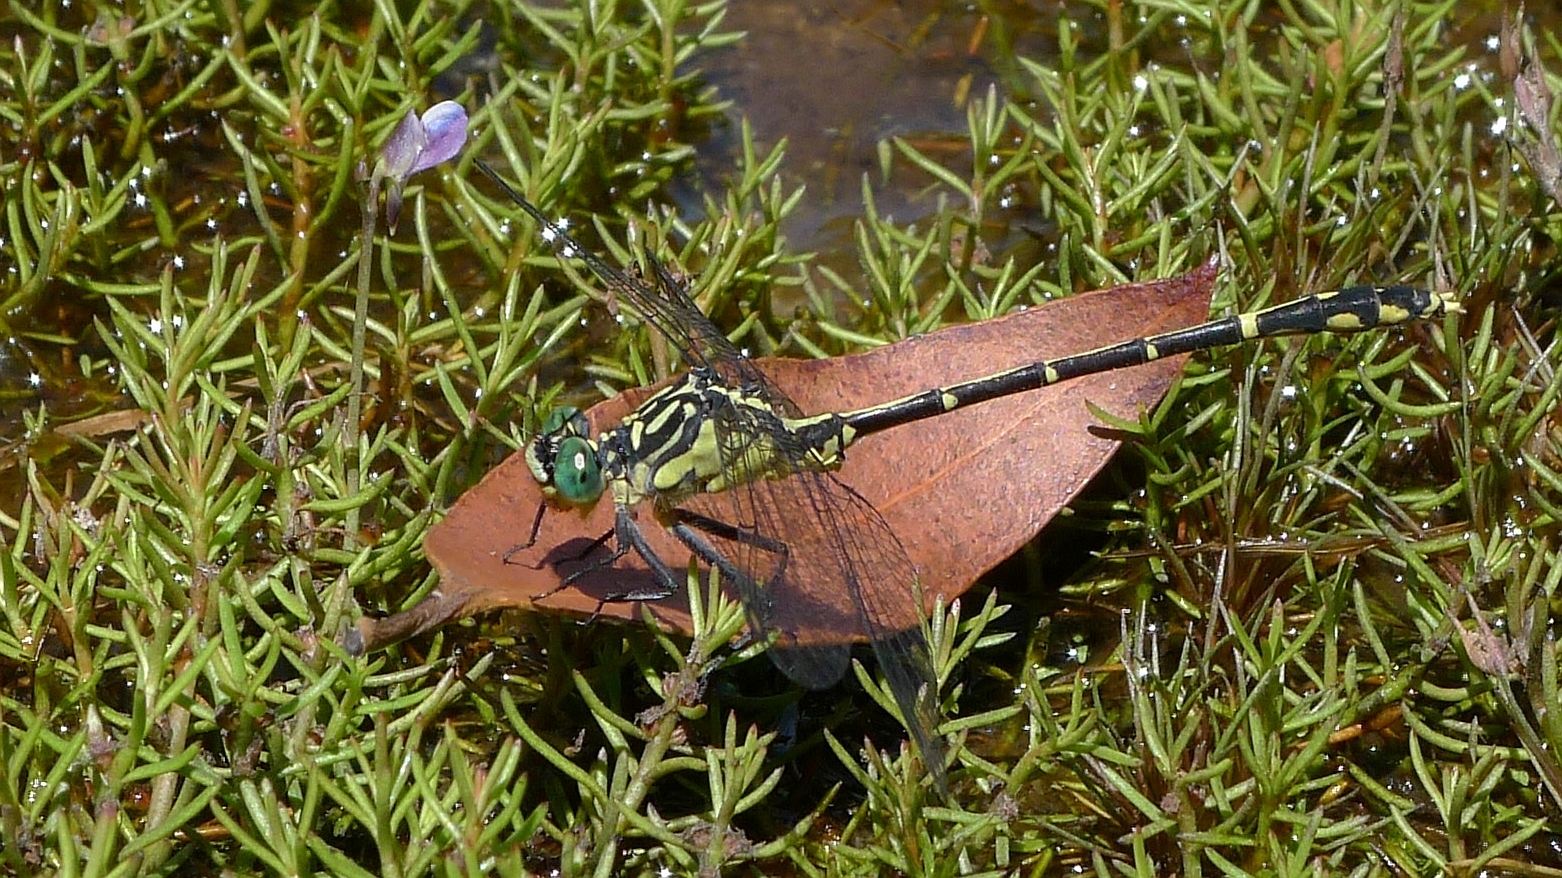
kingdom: Animalia
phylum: Arthropoda
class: Insecta
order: Odonata
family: Gomphidae
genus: Austrogomphus
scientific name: Austrogomphus ochraceus
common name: Jade hunter
